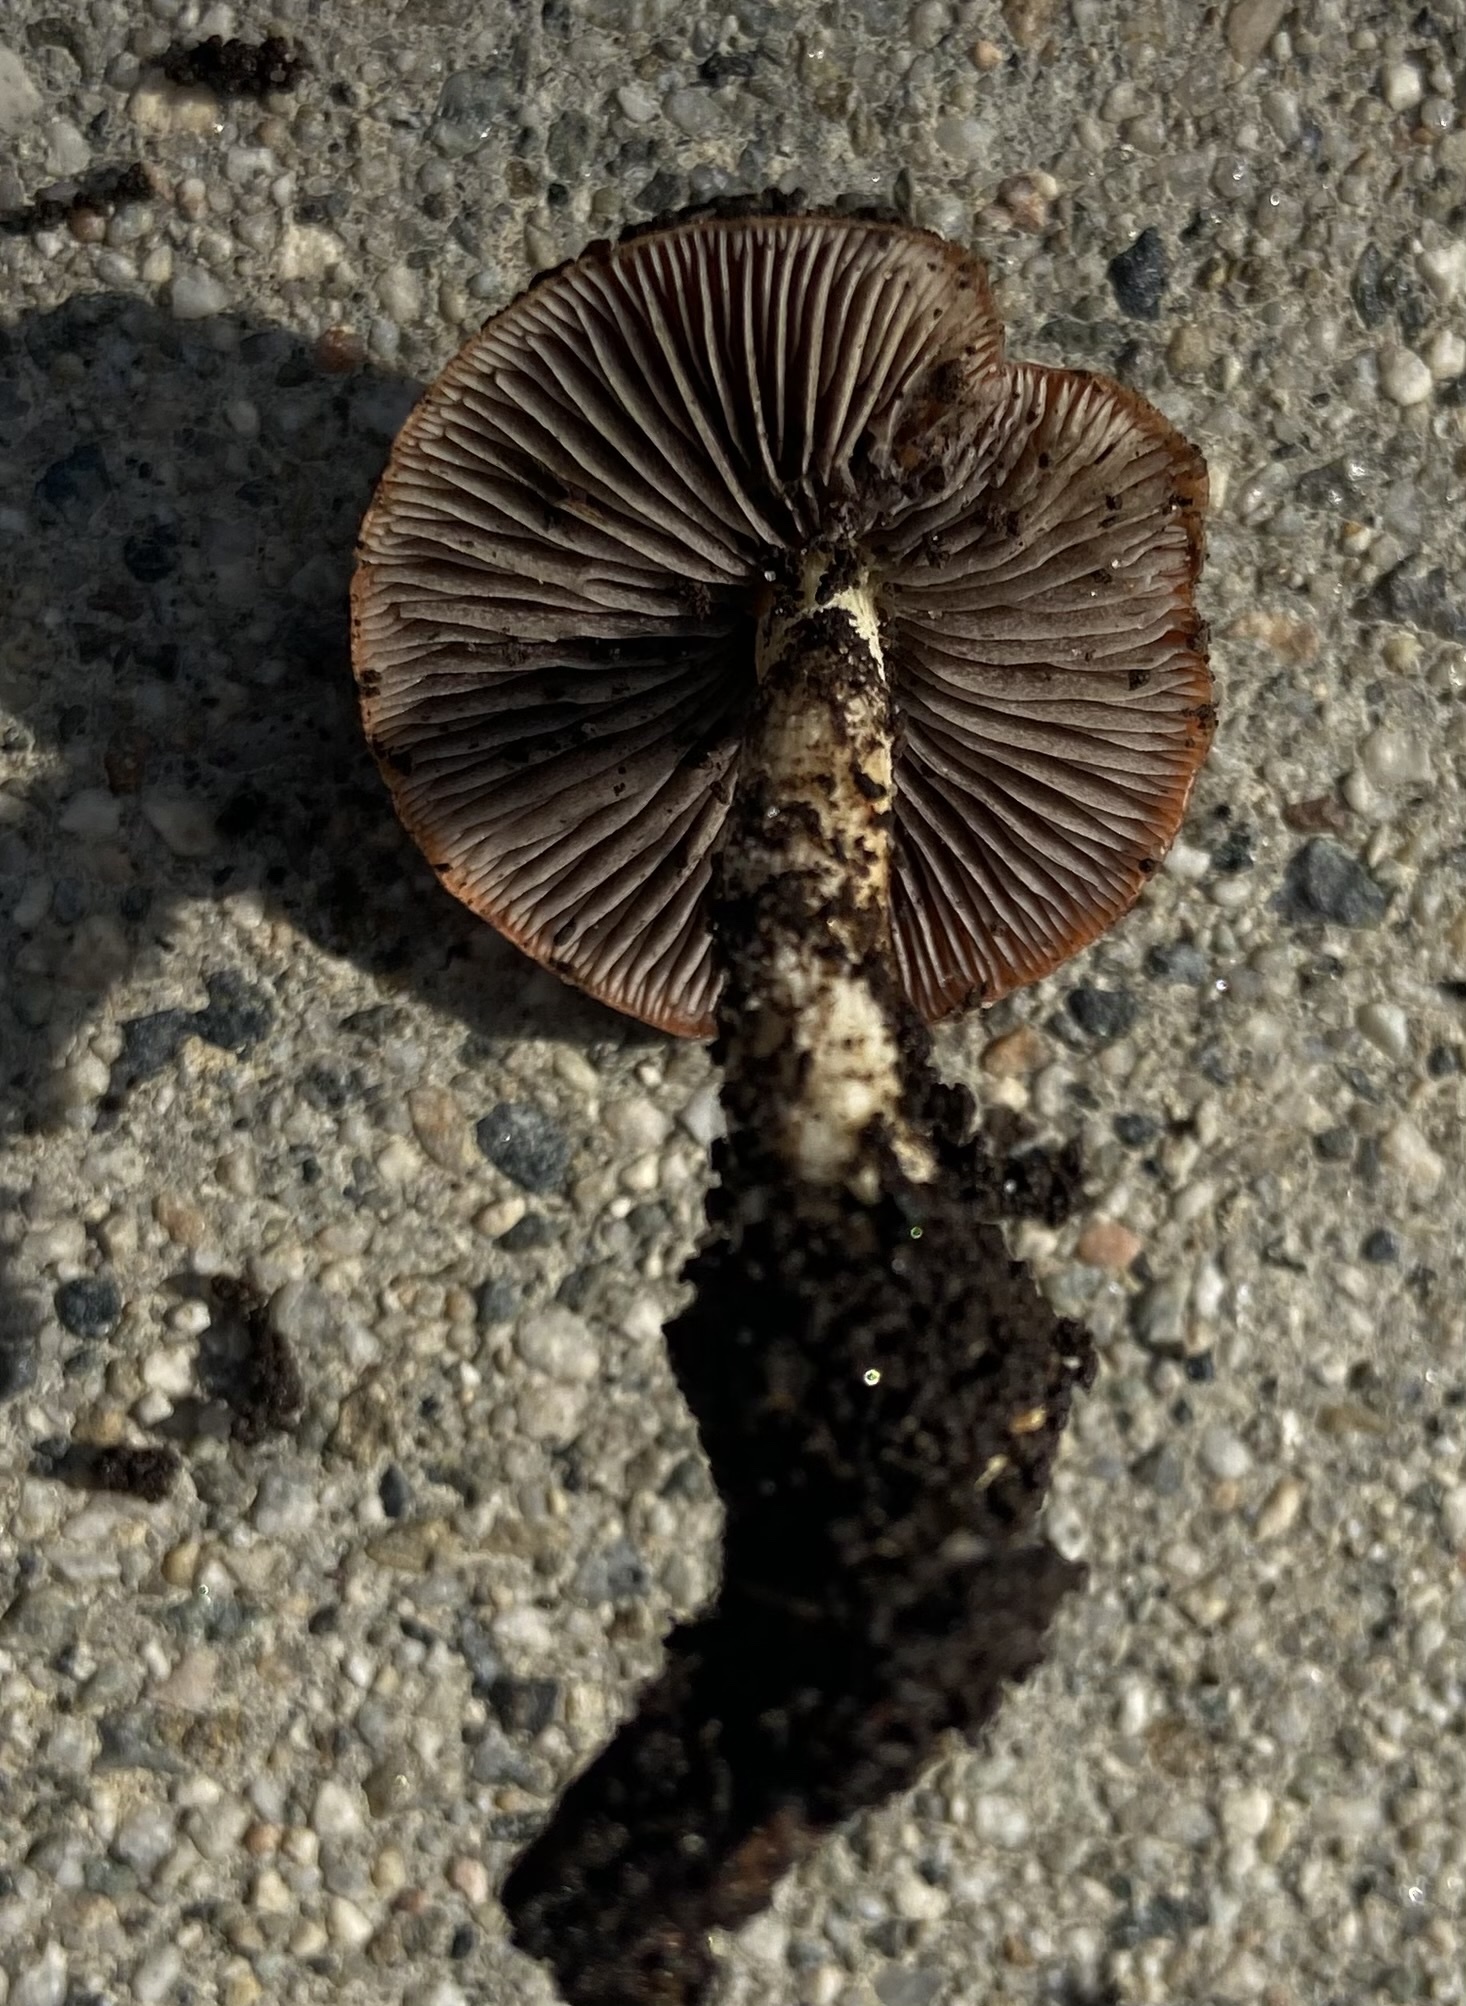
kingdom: Fungi
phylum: Basidiomycota
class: Agaricomycetes
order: Agaricales
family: Strophariaceae
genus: Leratiomyces
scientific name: Leratiomyces ceres
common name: Redlead roundhead
